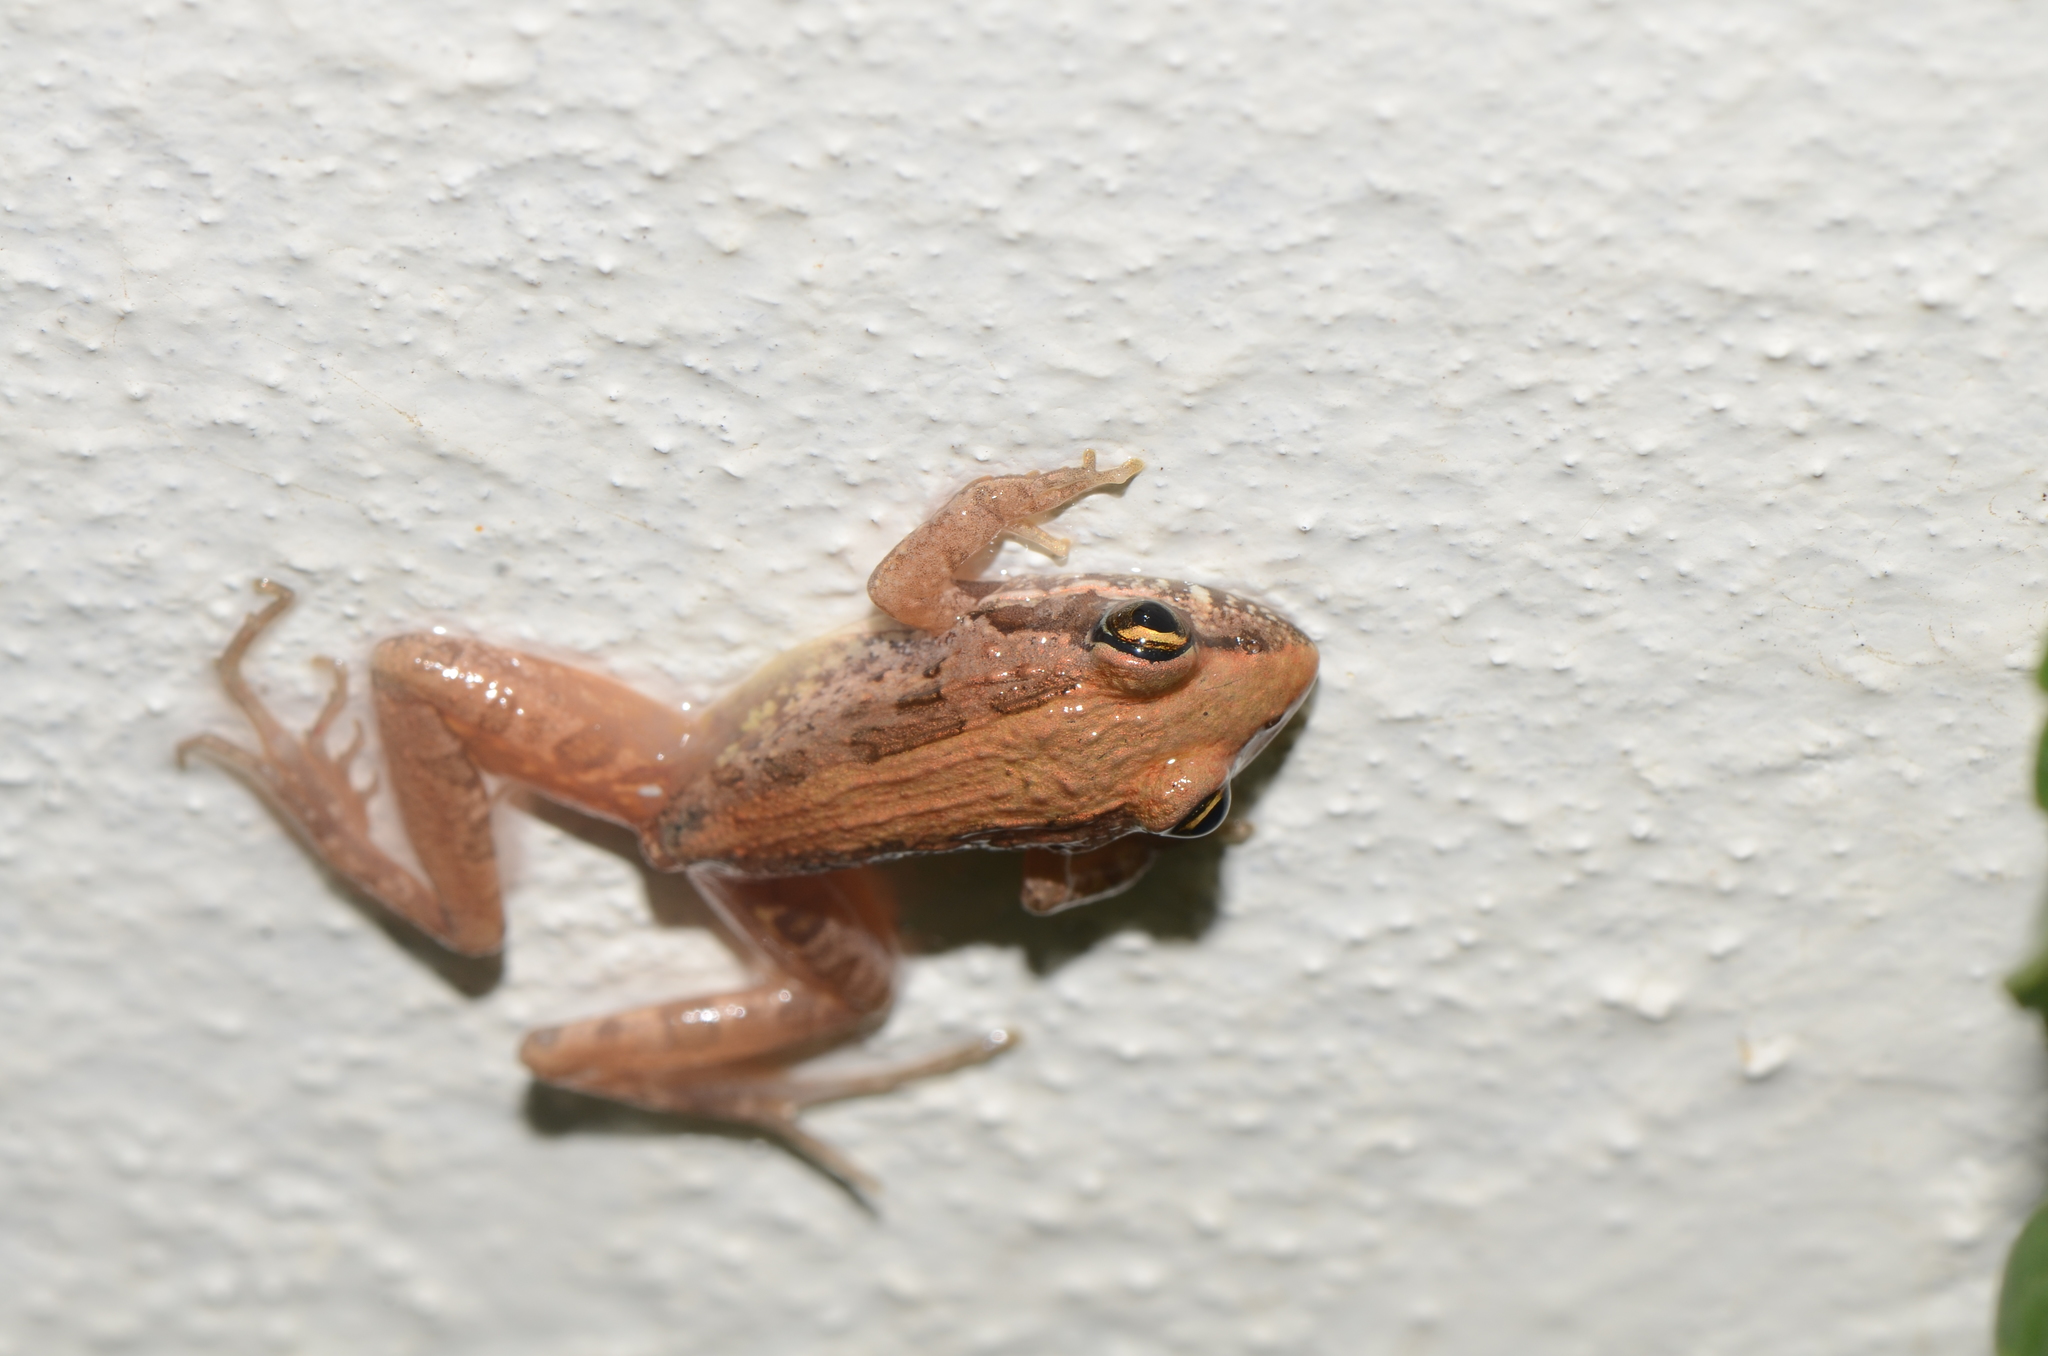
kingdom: Animalia
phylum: Chordata
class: Amphibia
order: Anura
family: Pyxicephalidae
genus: Strongylopus
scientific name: Strongylopus grayii
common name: Gray's stream frog
